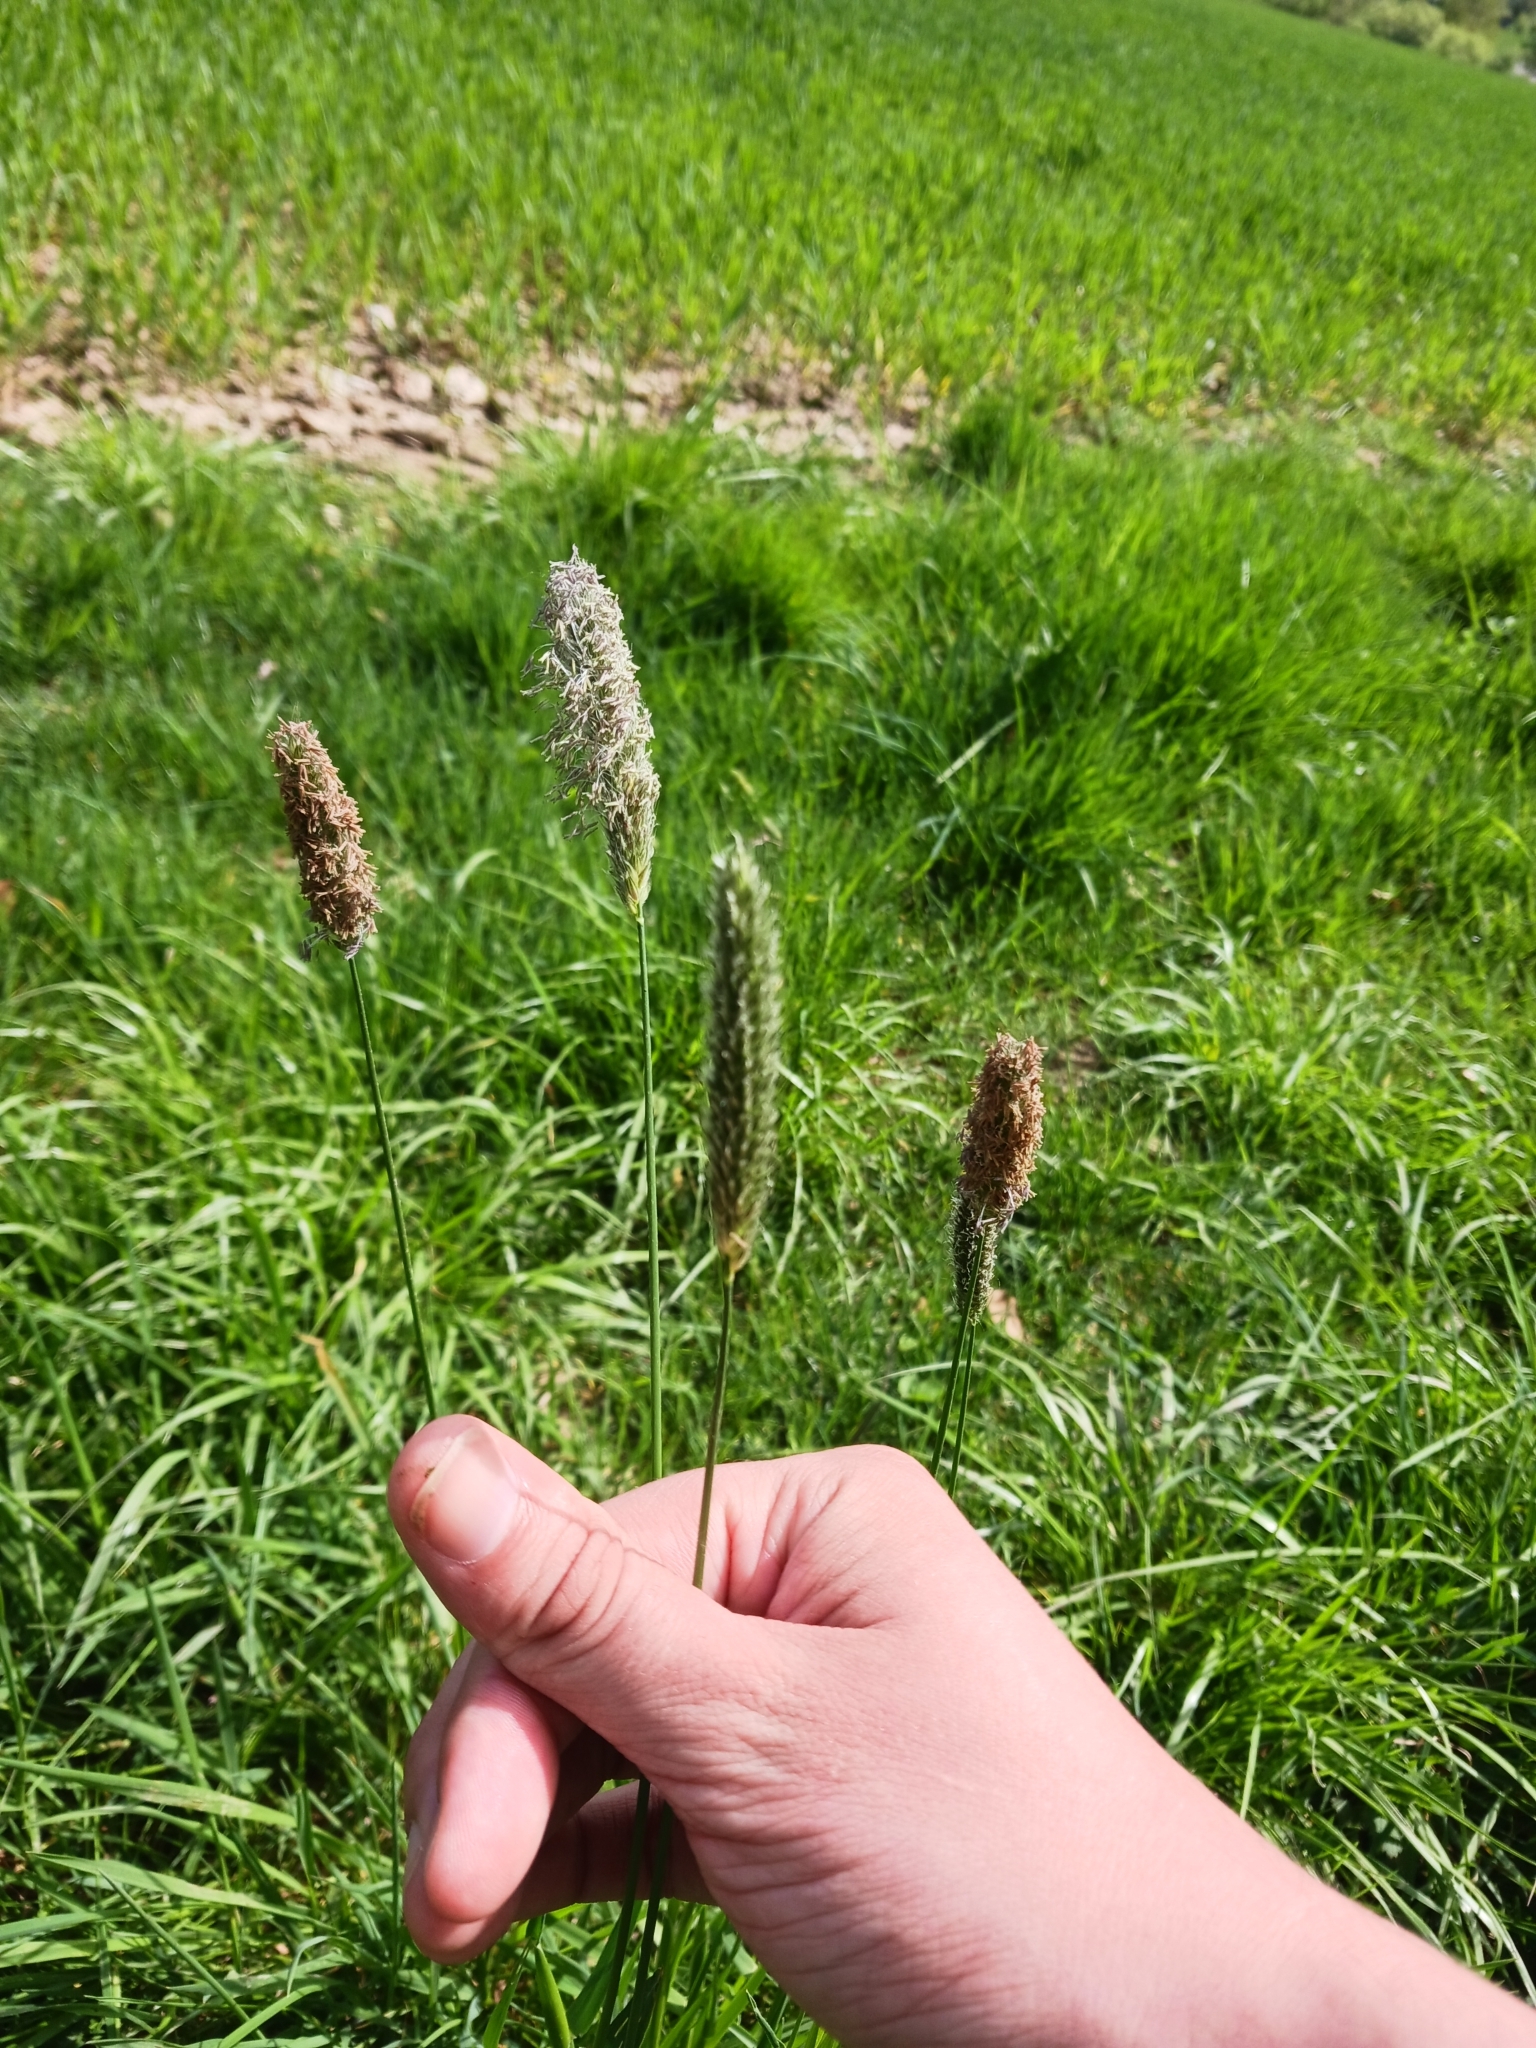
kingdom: Plantae
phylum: Tracheophyta
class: Liliopsida
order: Poales
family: Poaceae
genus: Alopecurus
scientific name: Alopecurus pratensis
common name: Meadow foxtail
